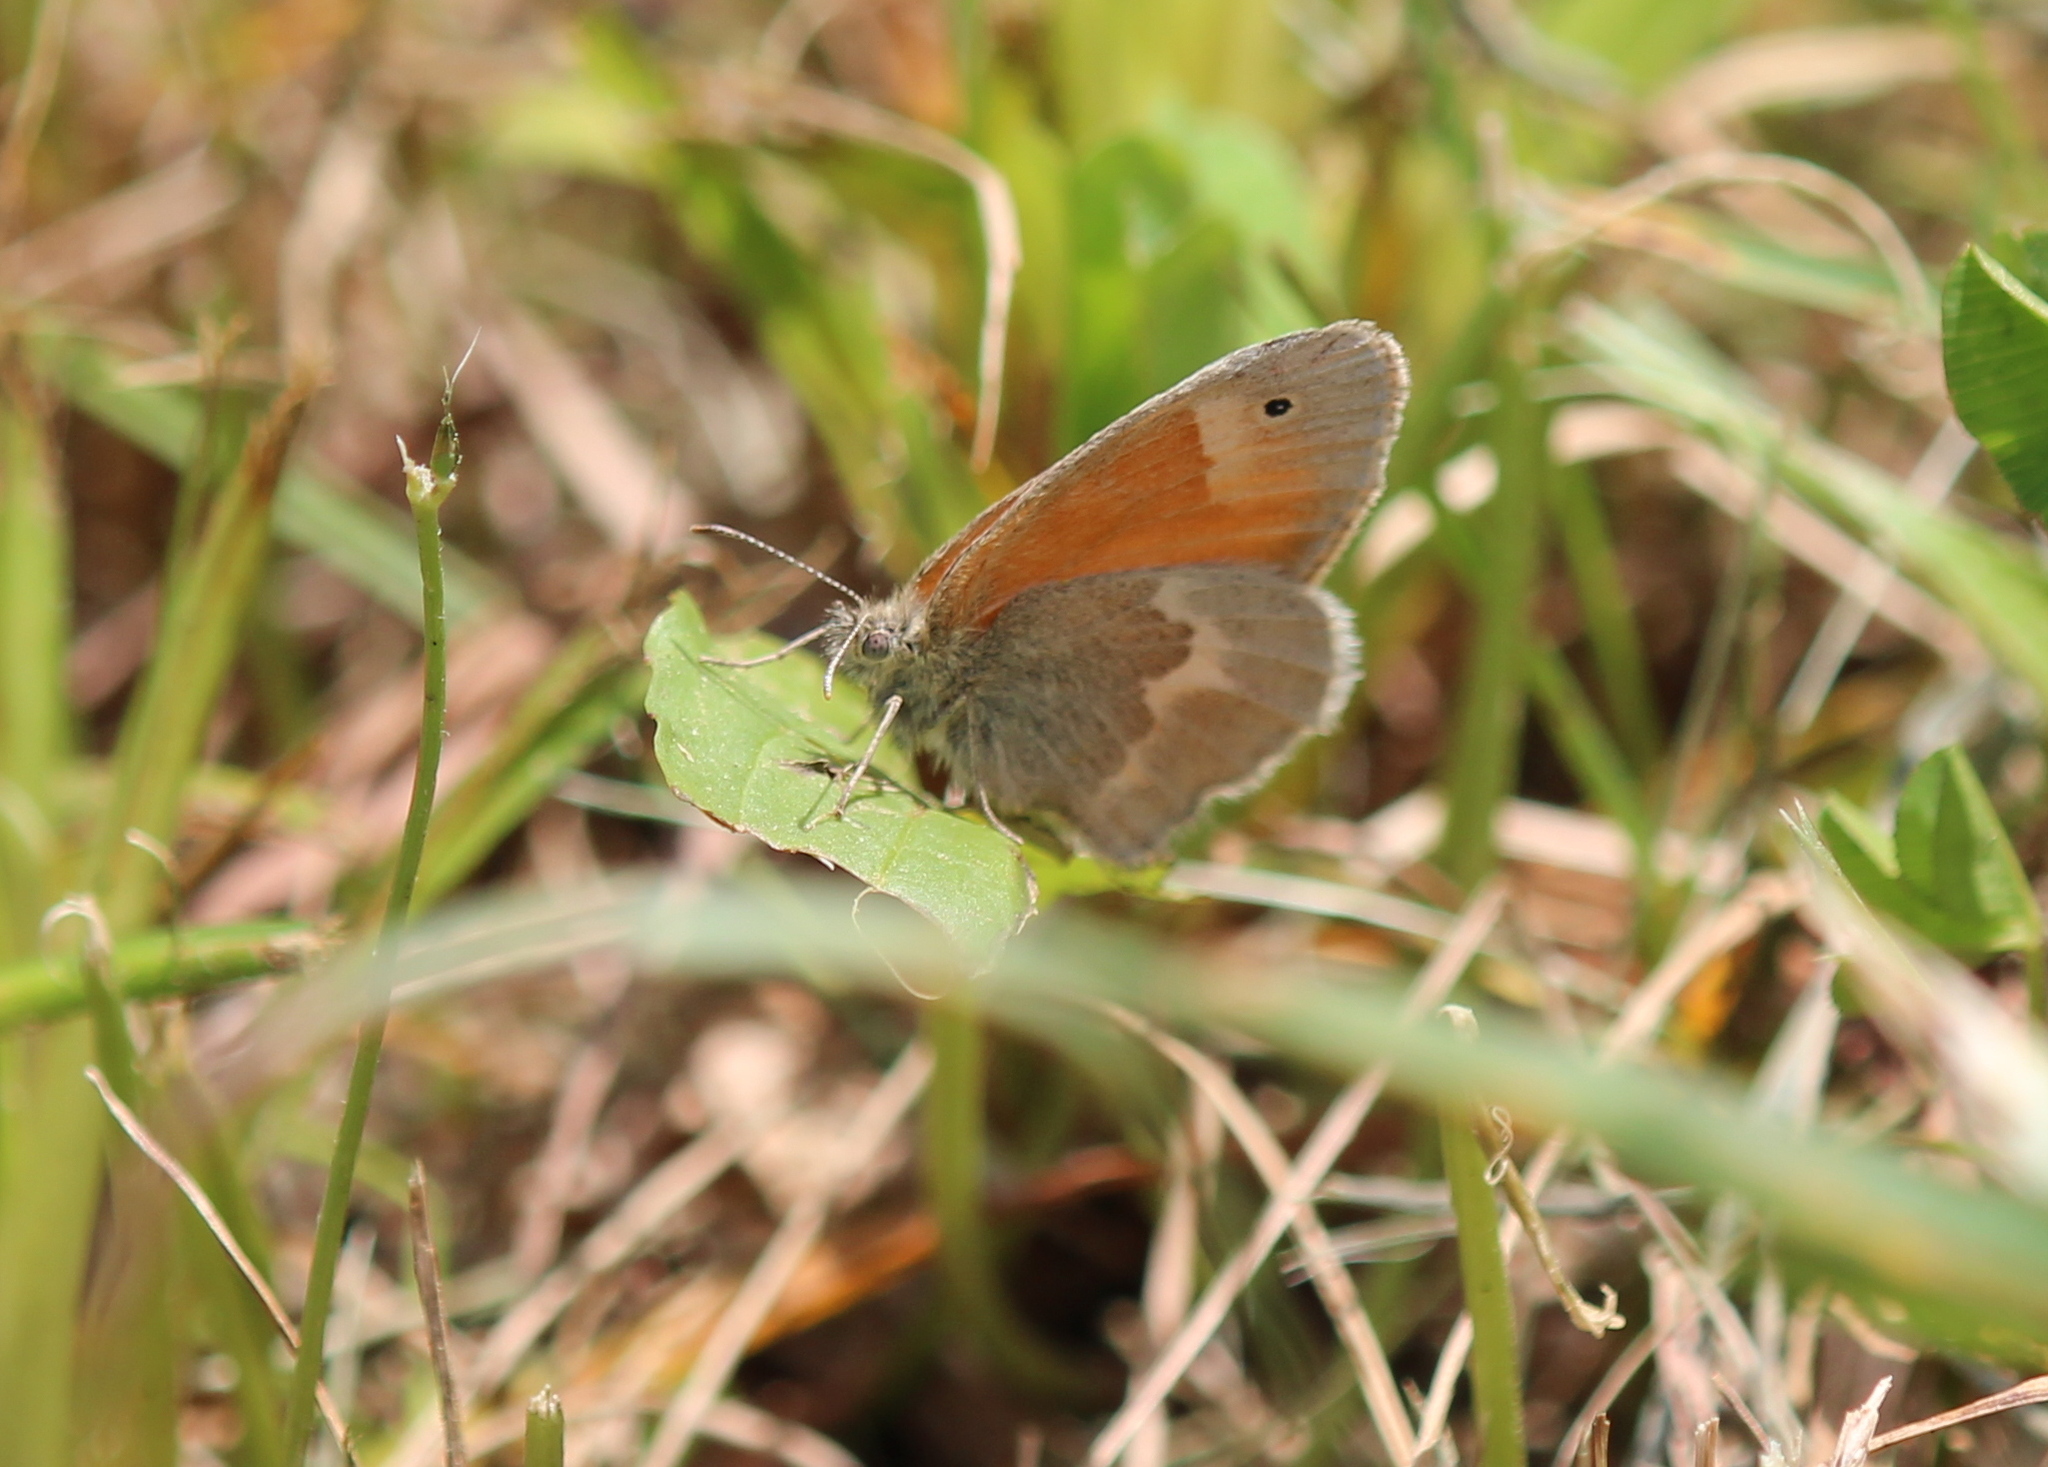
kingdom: Animalia
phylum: Arthropoda
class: Insecta
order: Lepidoptera
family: Nymphalidae
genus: Coenonympha
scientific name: Coenonympha california
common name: Common ringlet
